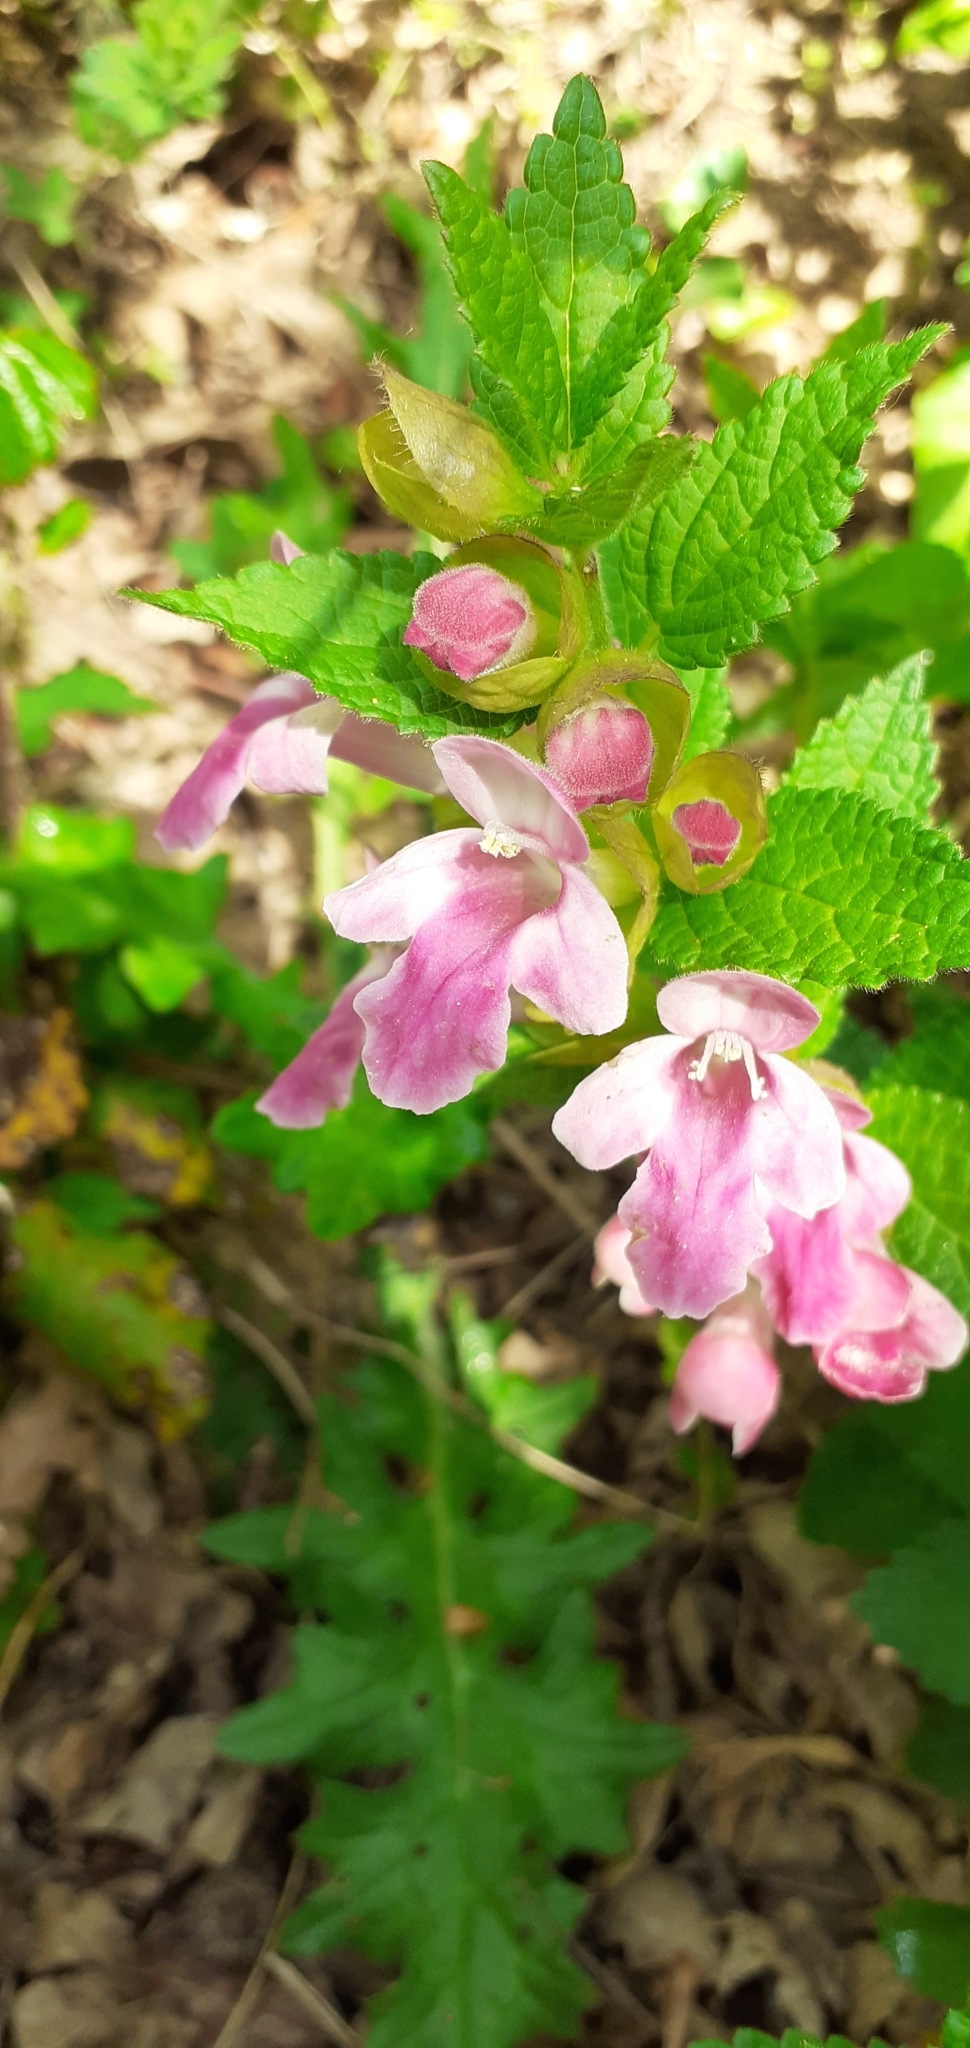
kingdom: Plantae
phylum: Tracheophyta
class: Magnoliopsida
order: Lamiales
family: Lamiaceae
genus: Melittis
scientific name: Melittis melissophyllum
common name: Bastard balm
